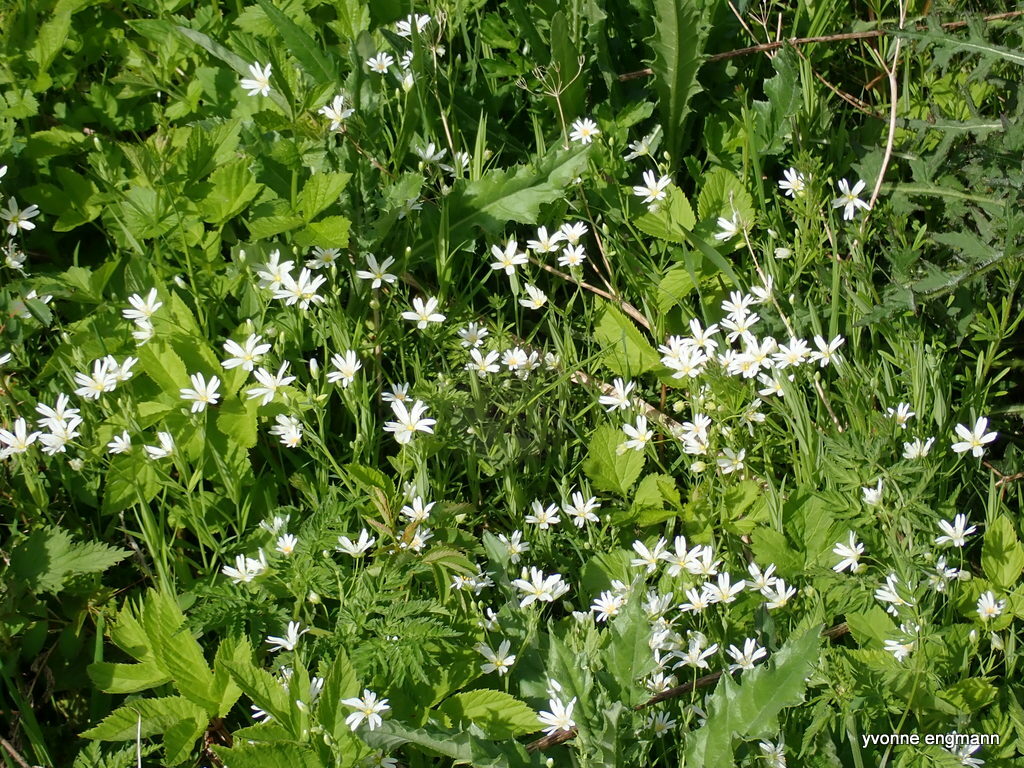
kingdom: Plantae
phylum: Tracheophyta
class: Magnoliopsida
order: Caryophyllales
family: Caryophyllaceae
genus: Rabelera
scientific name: Rabelera holostea
